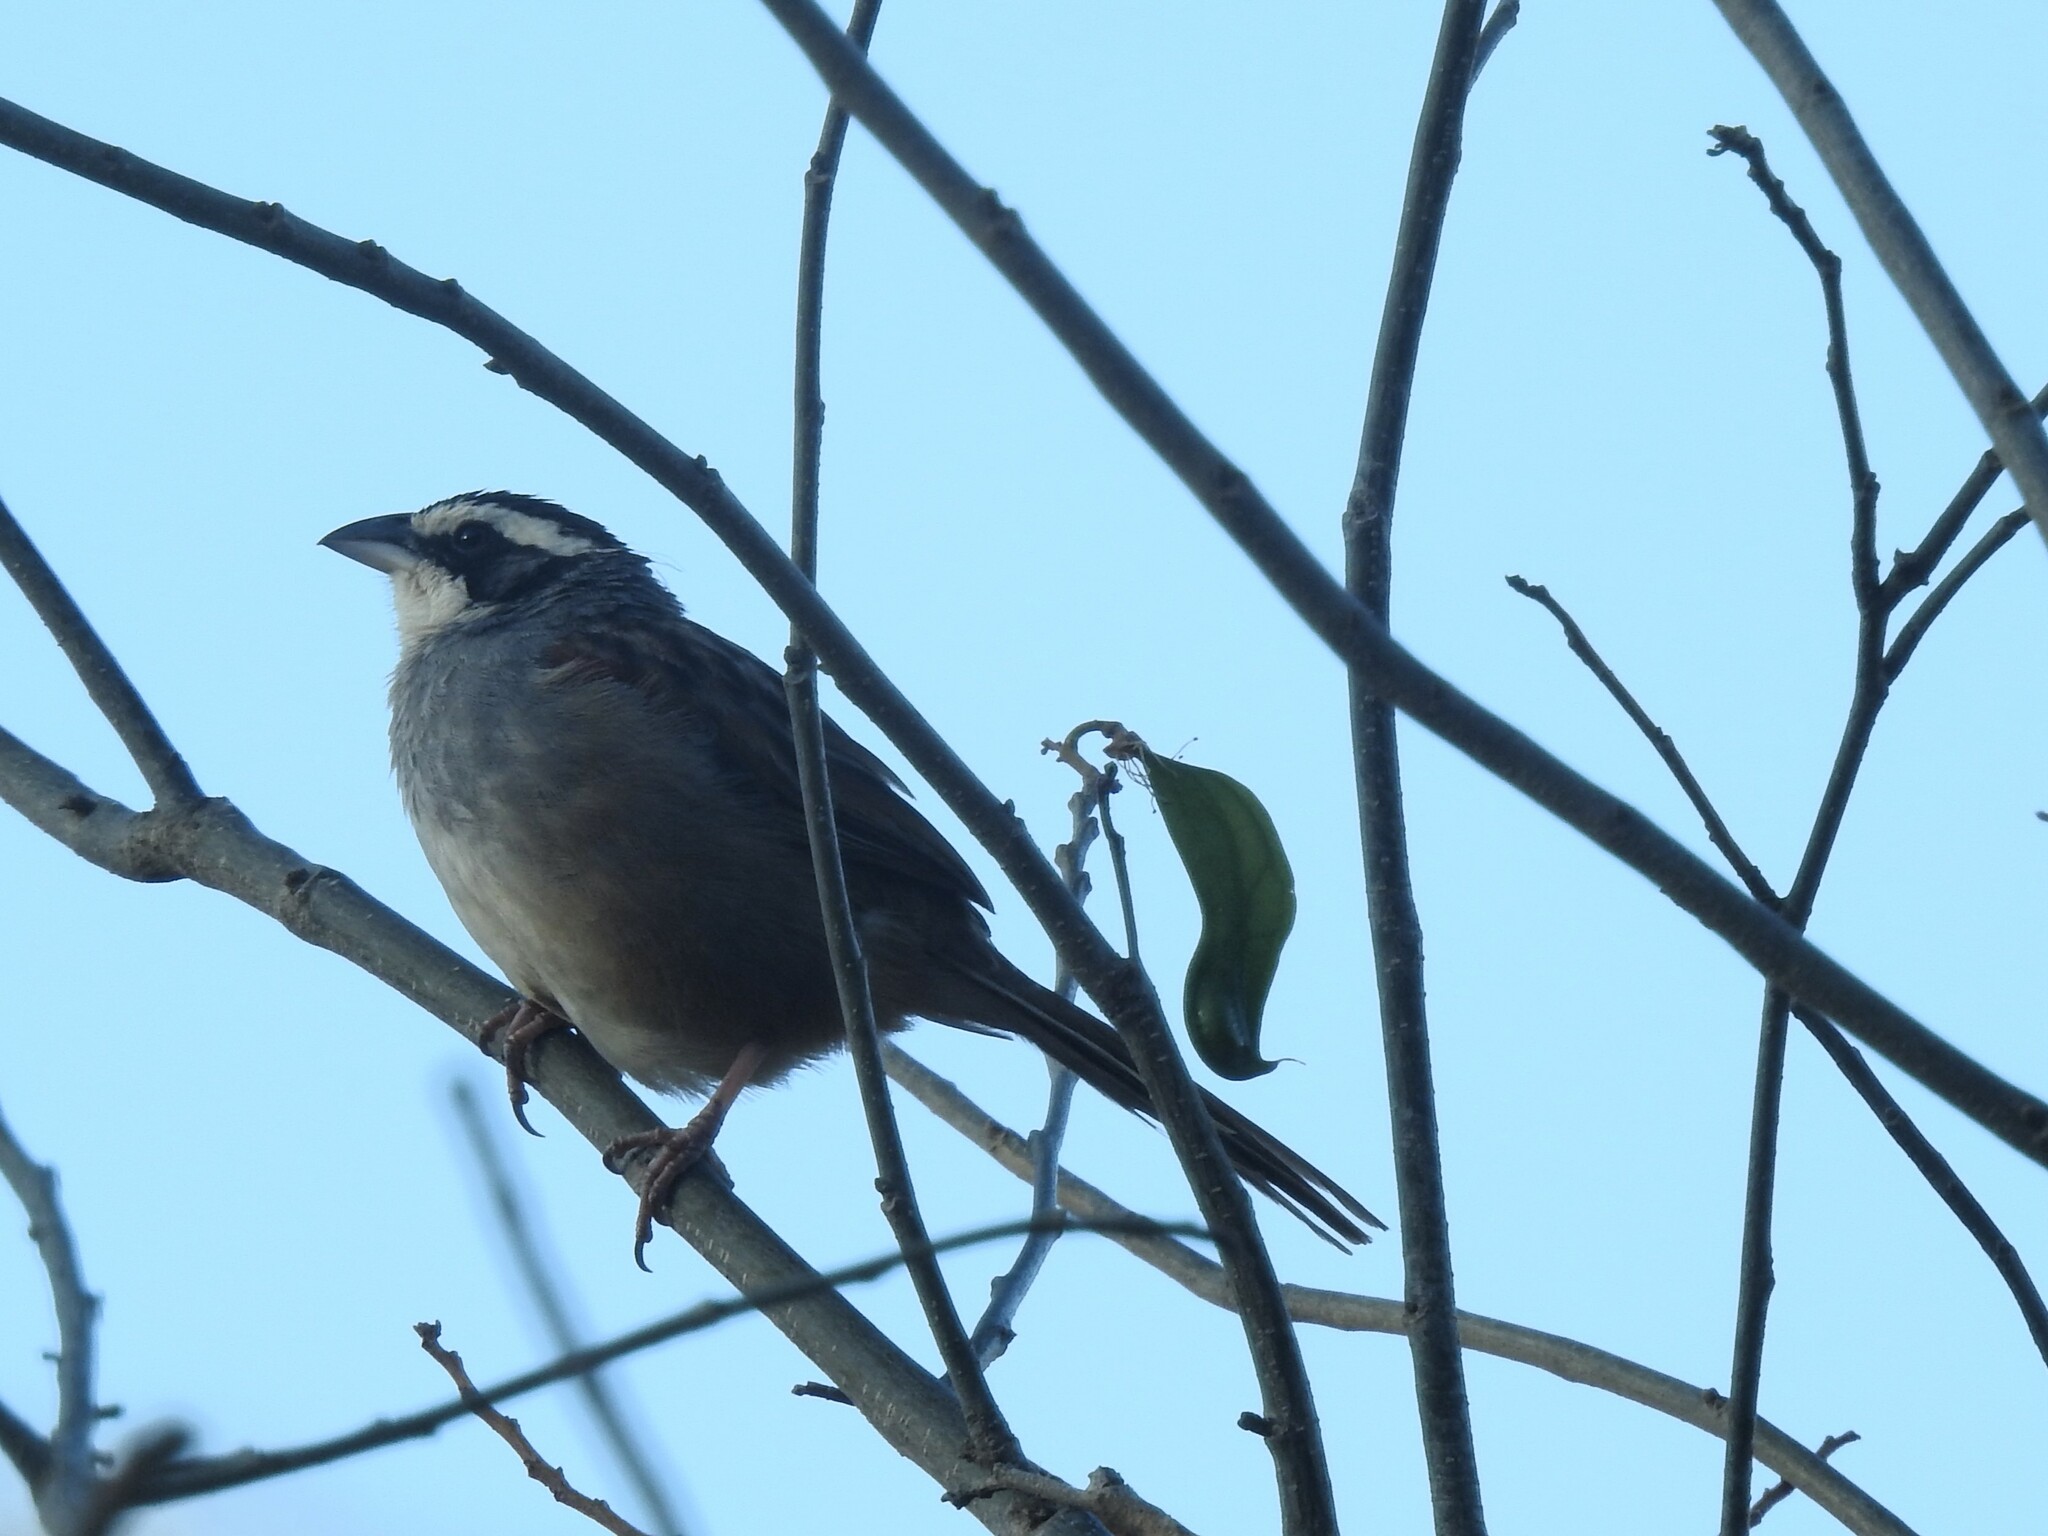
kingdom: Animalia
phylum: Chordata
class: Aves
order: Passeriformes
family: Passerellidae
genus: Peucaea
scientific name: Peucaea ruficauda
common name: Stripe-headed sparrow
